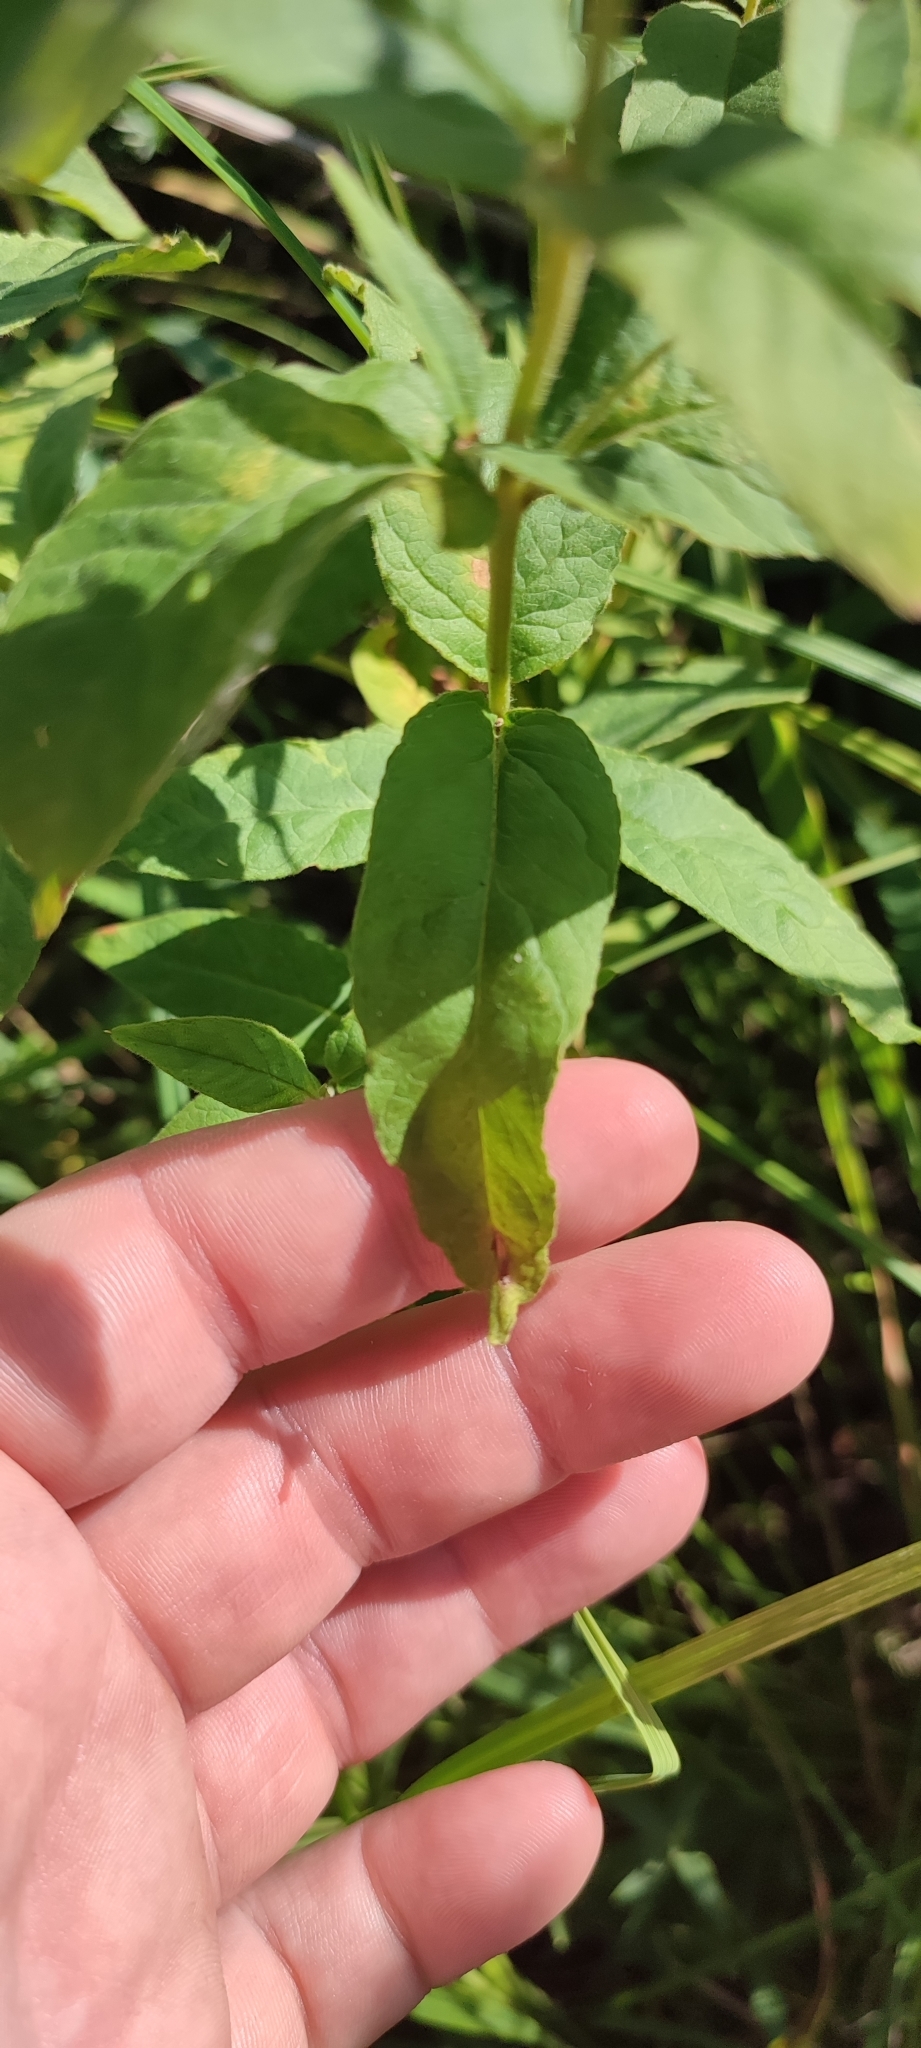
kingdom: Plantae
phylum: Tracheophyta
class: Magnoliopsida
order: Ericales
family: Primulaceae
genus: Lysimachia
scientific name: Lysimachia vulgaris
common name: Yellow loosestrife
